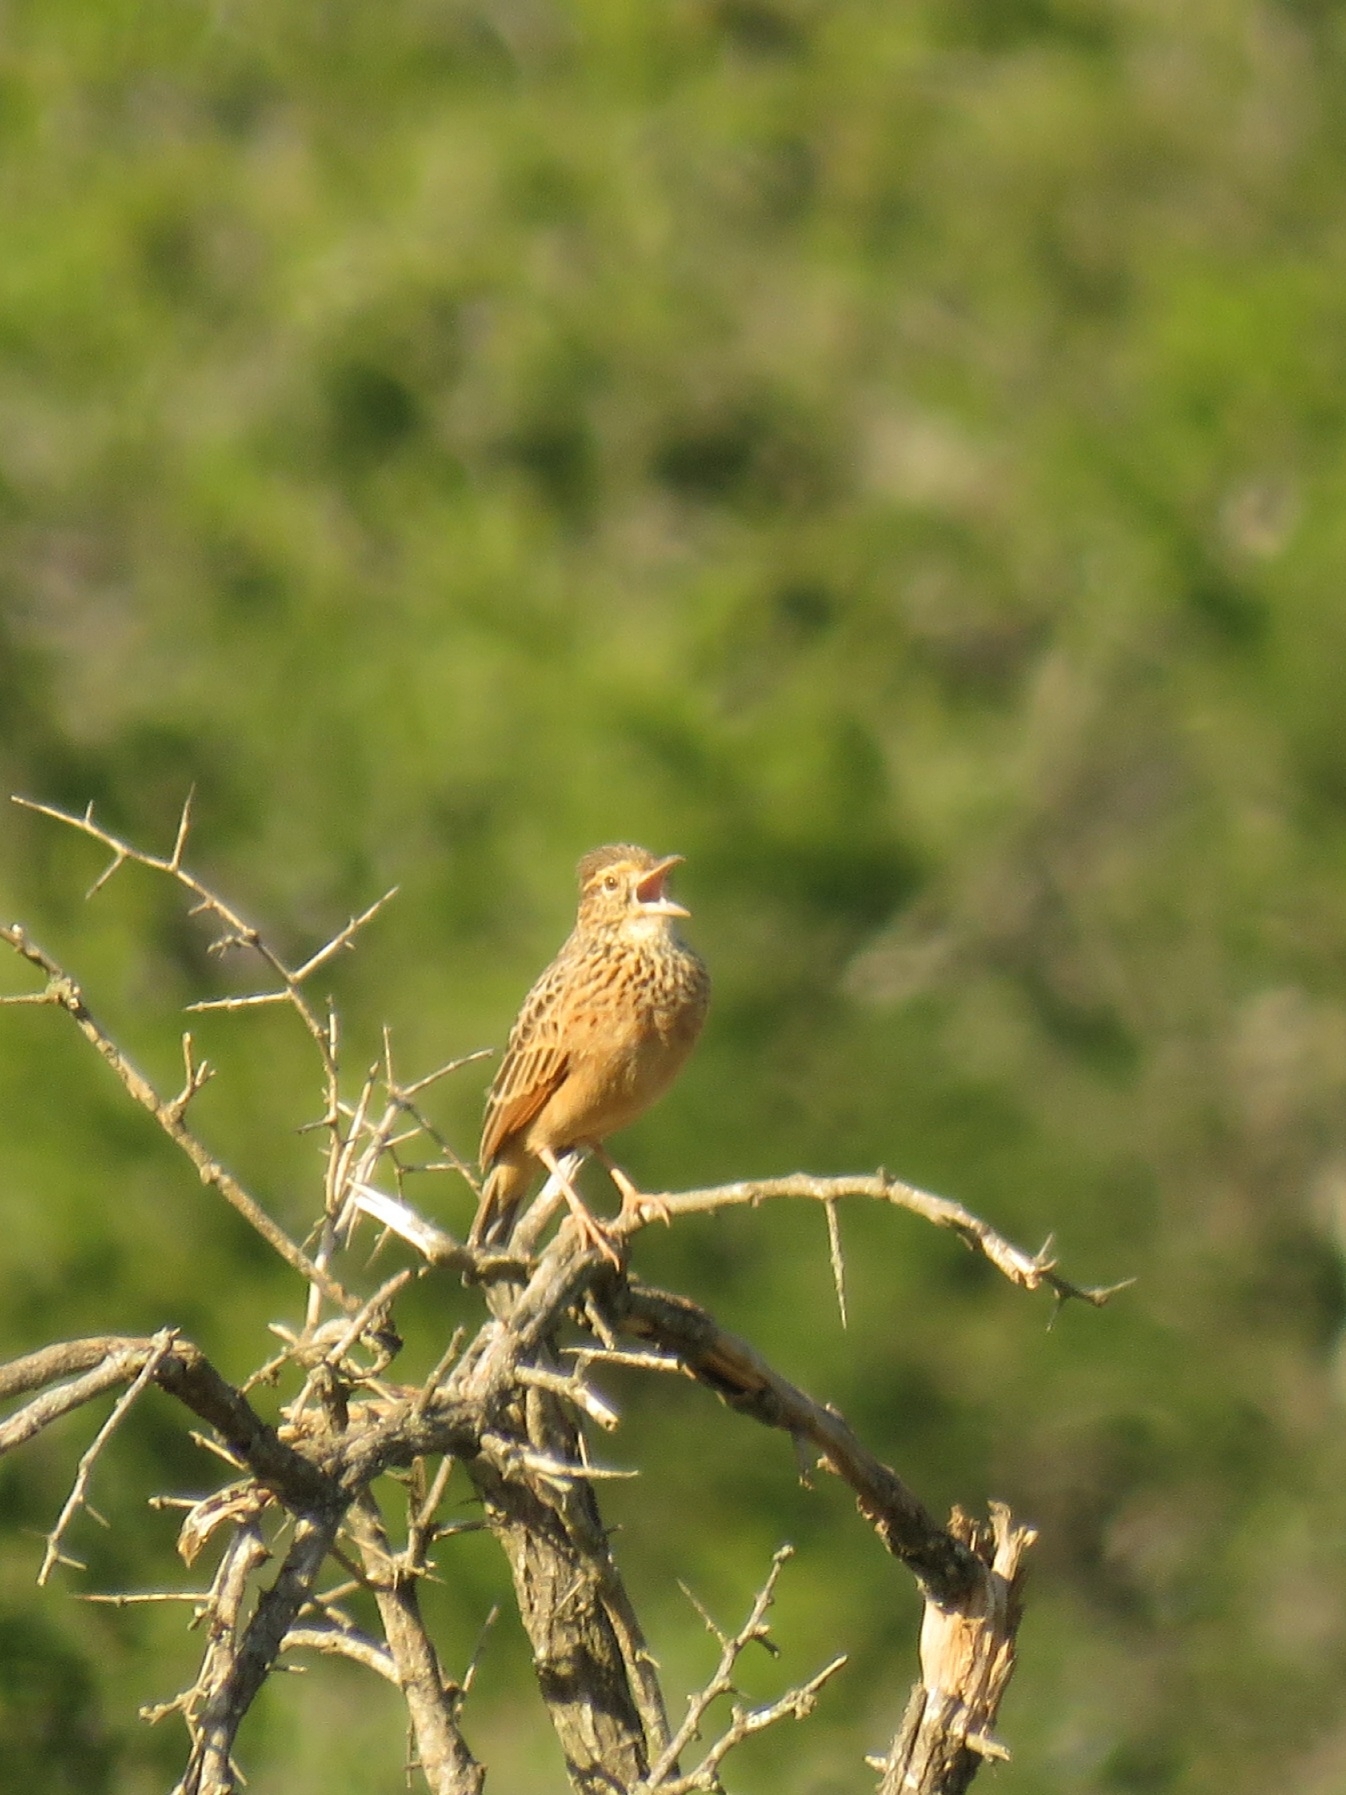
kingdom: Animalia
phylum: Chordata
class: Aves
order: Passeriformes
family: Alaudidae
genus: Mirafra
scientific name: Mirafra africana
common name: Rufous-naped lark
